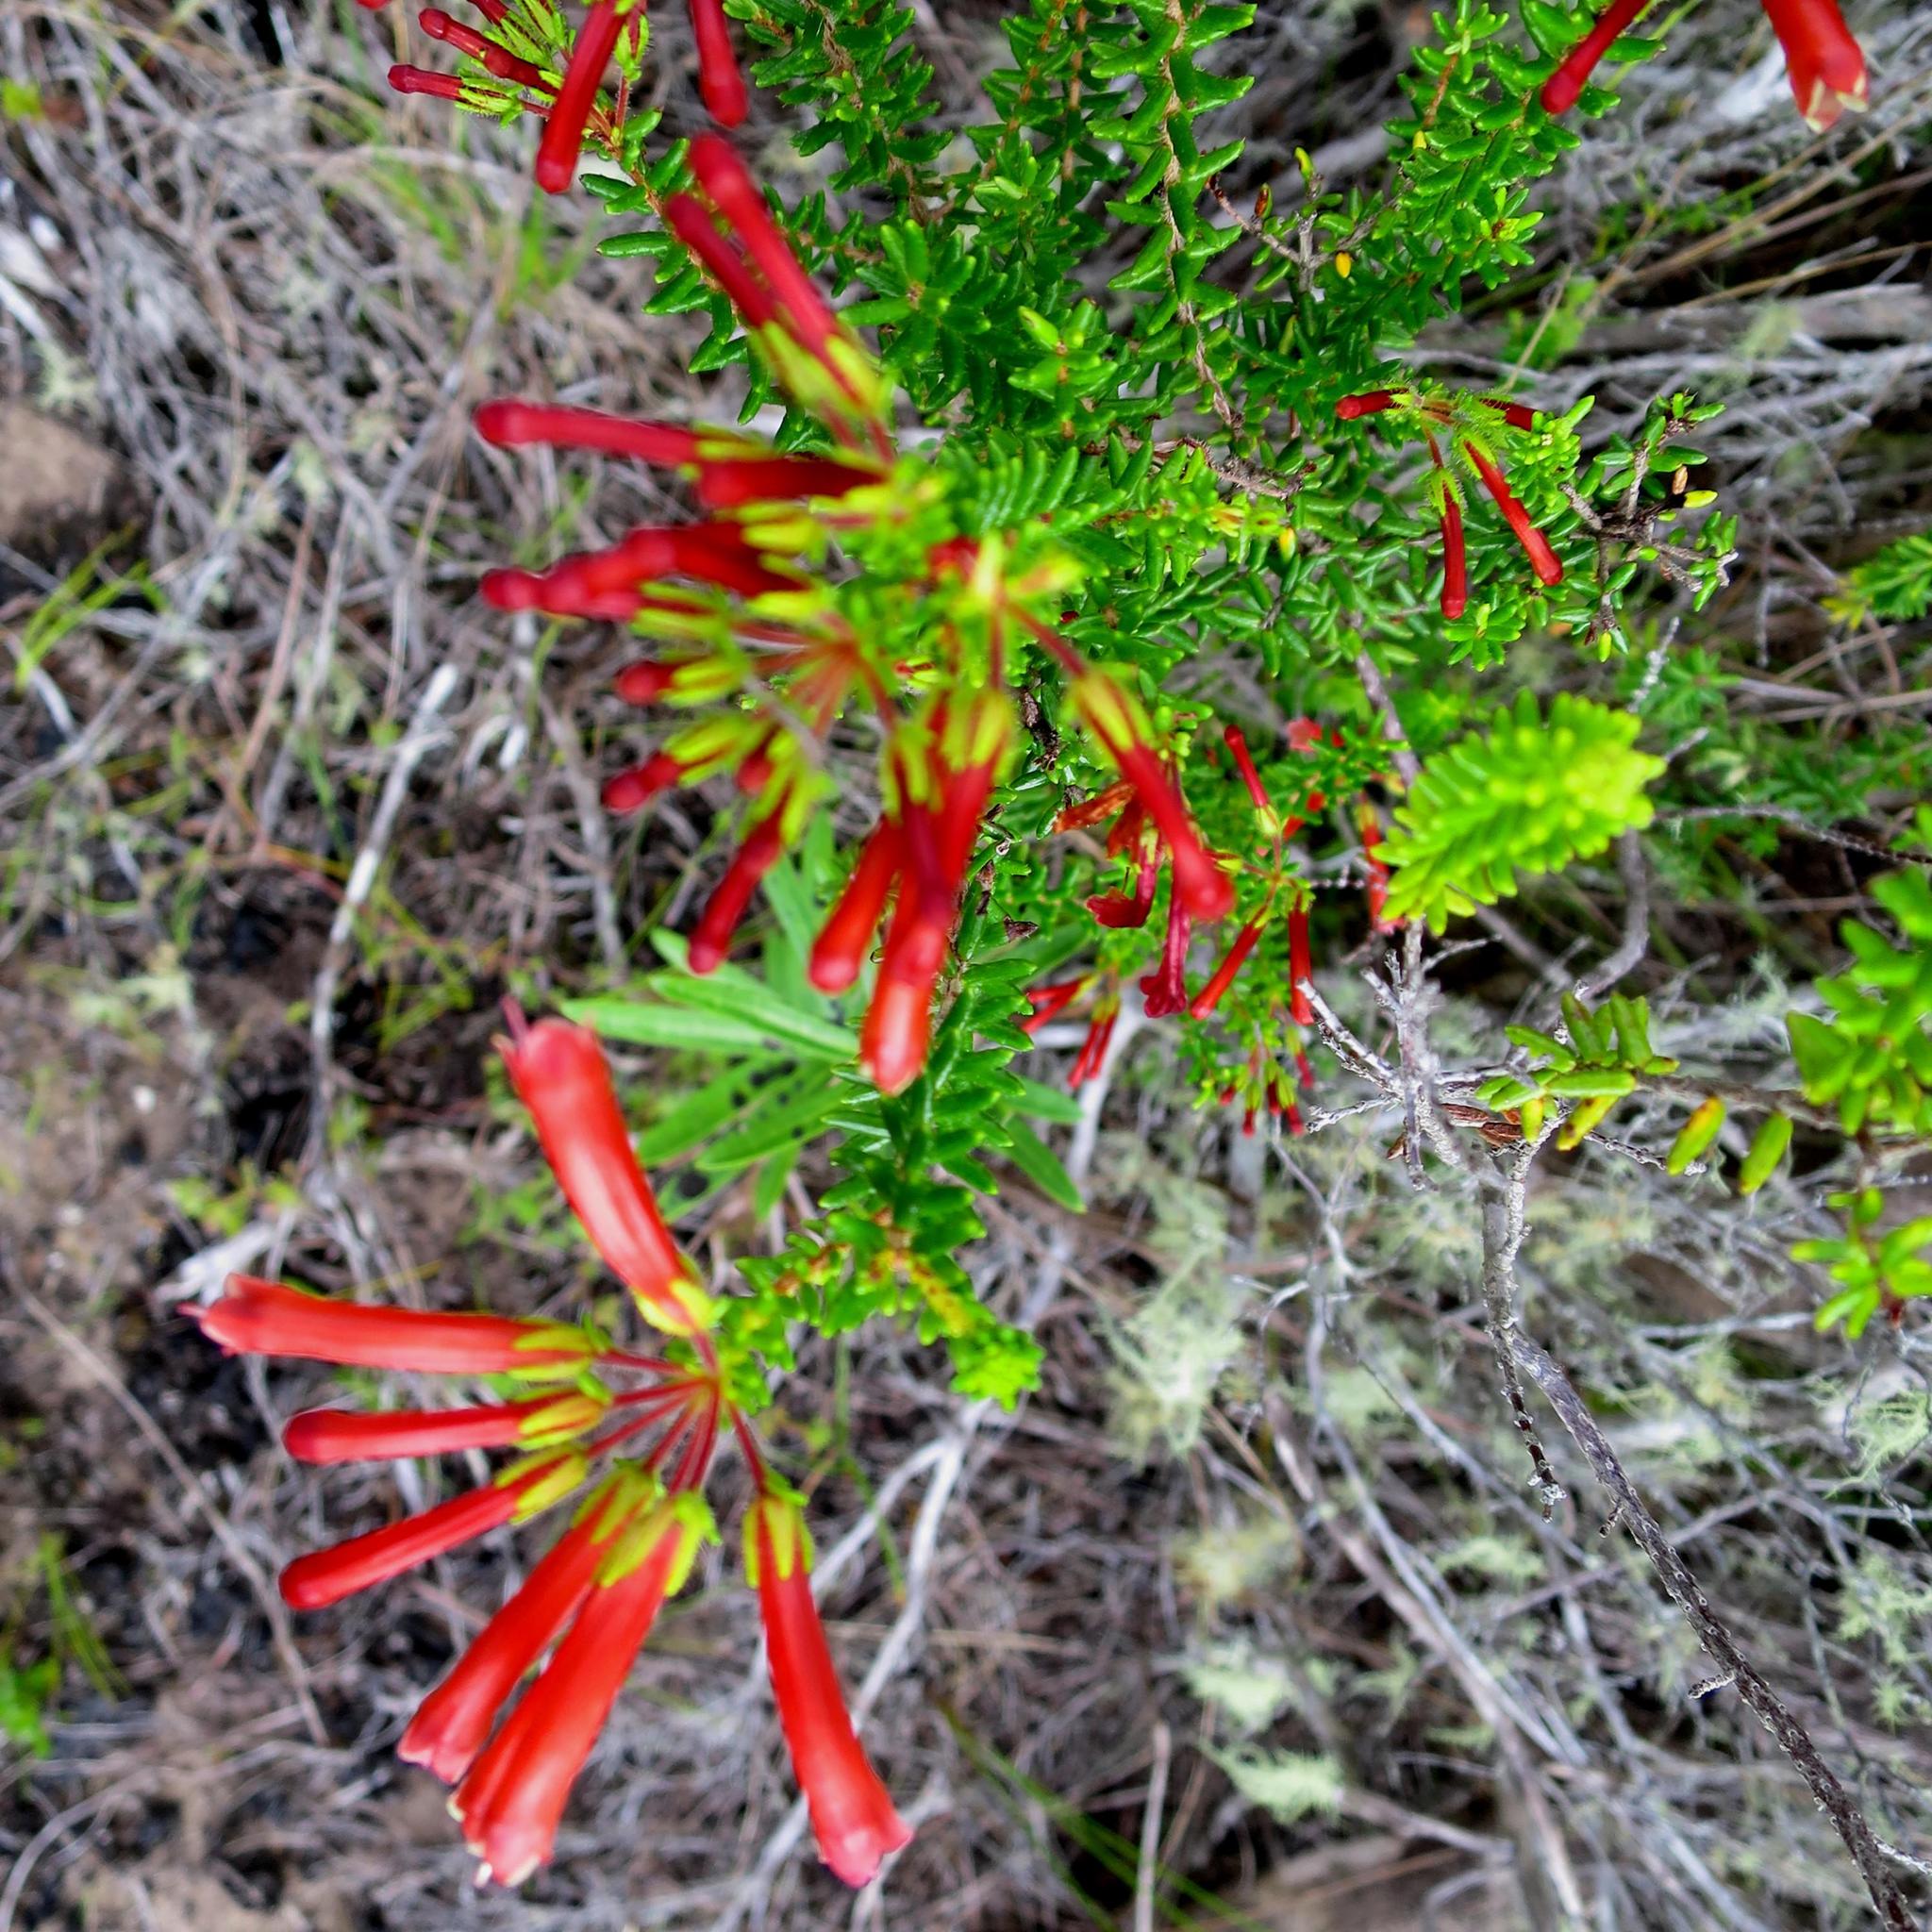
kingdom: Plantae
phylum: Tracheophyta
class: Magnoliopsida
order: Ericales
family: Ericaceae
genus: Erica
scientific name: Erica glandulosa
